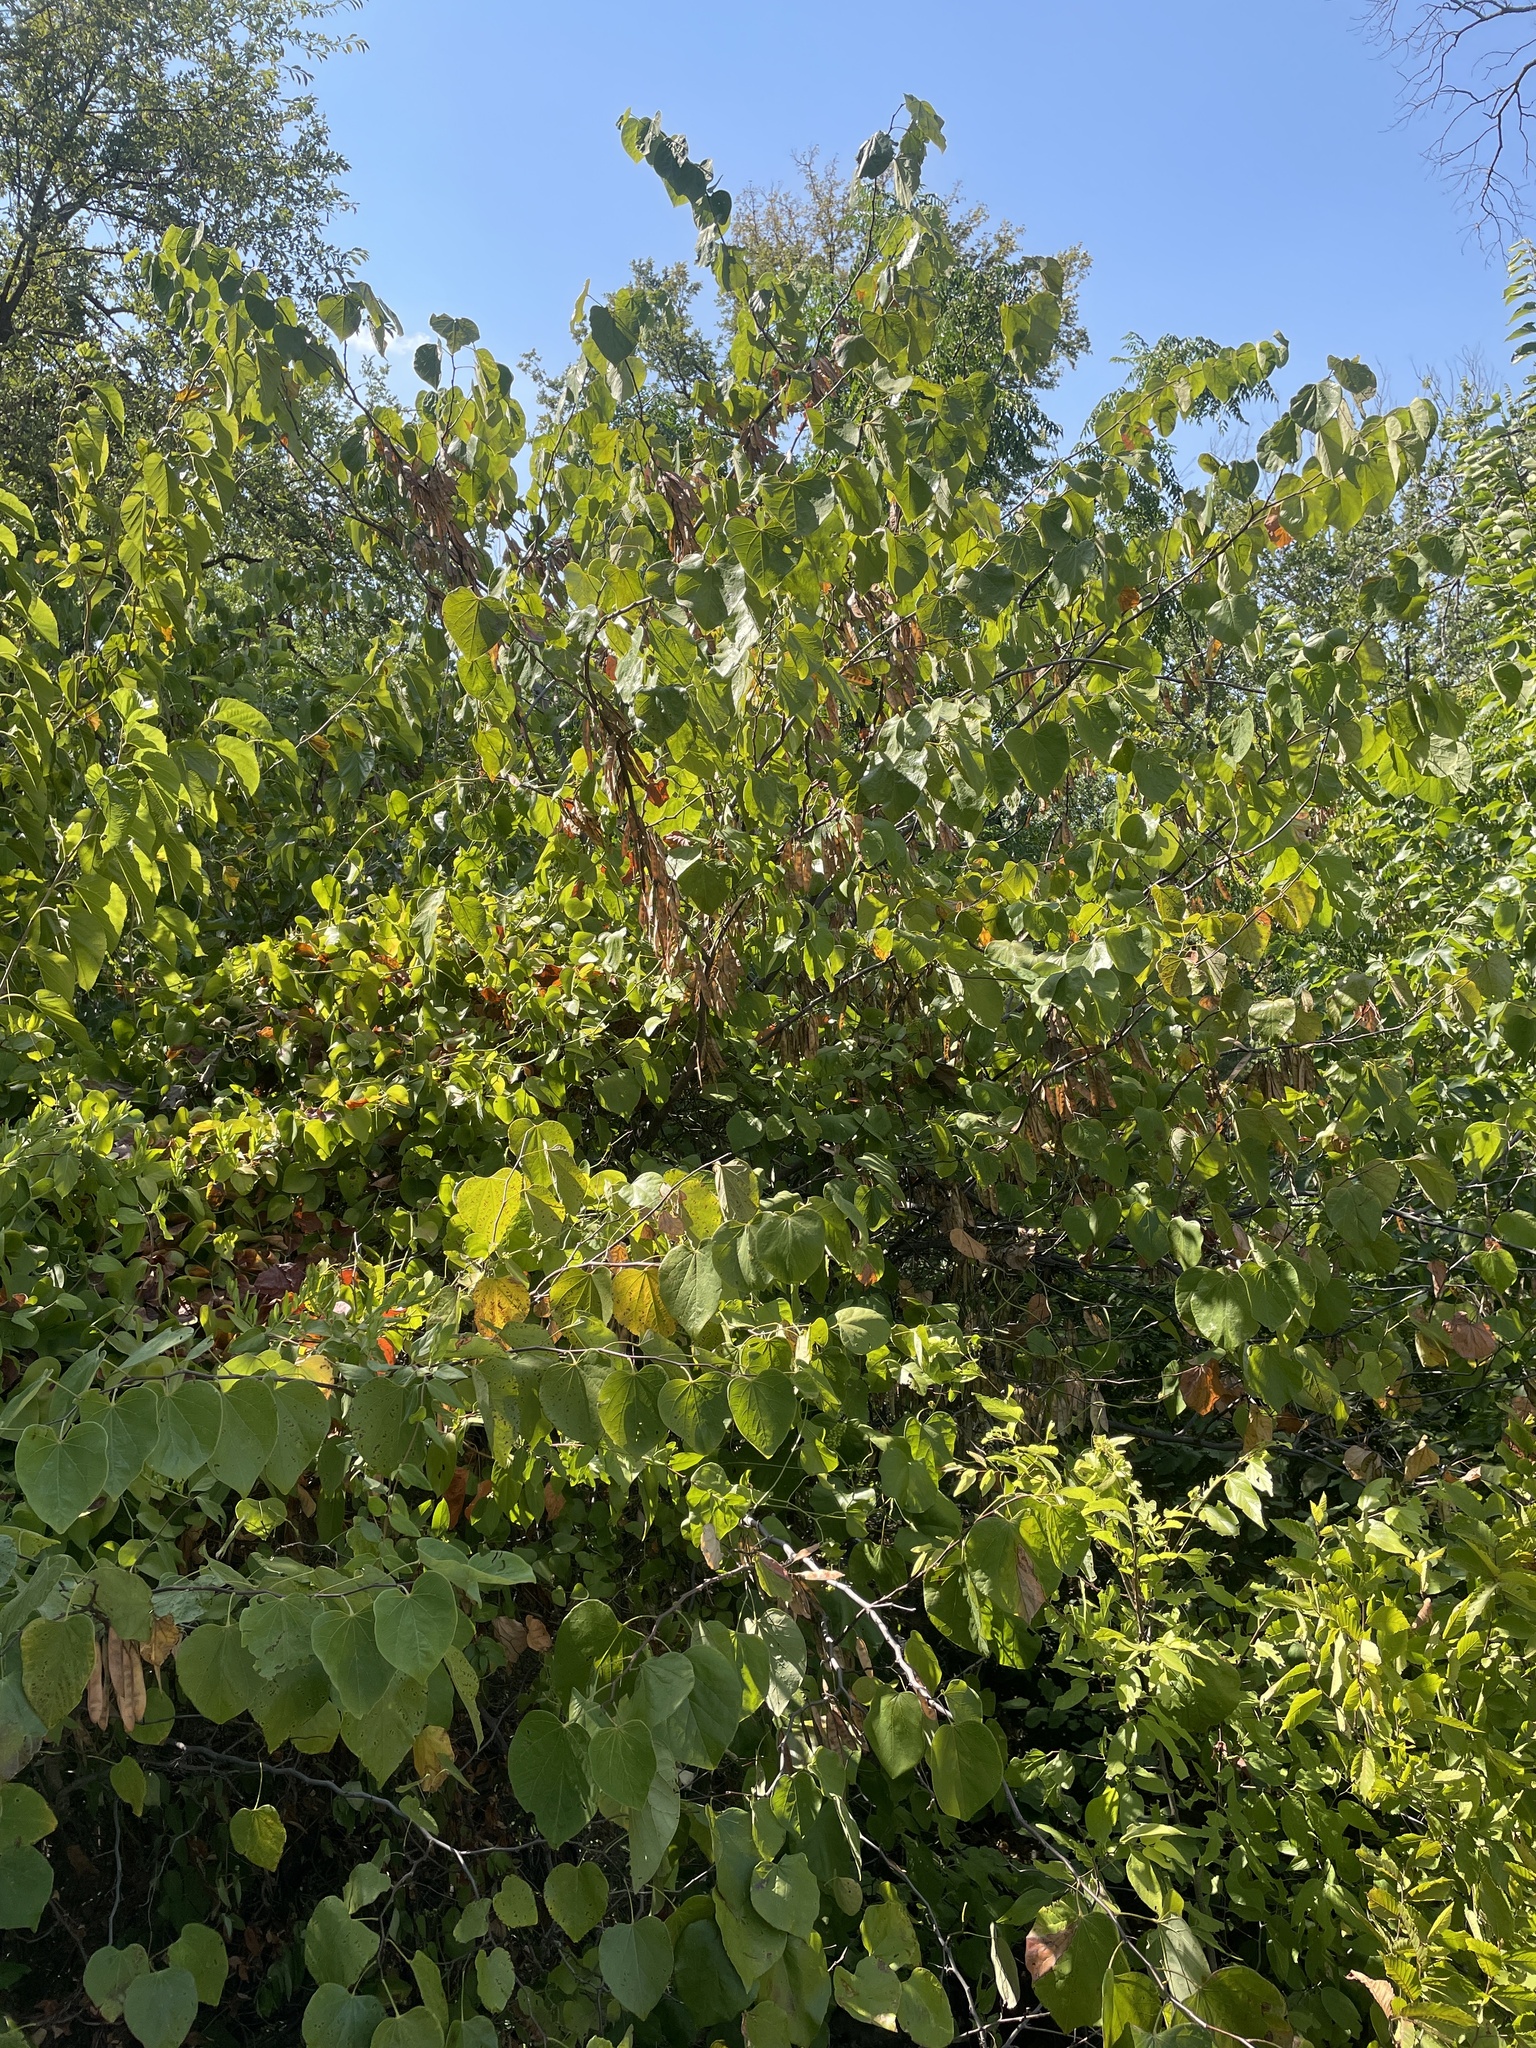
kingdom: Plantae
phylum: Tracheophyta
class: Magnoliopsida
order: Fabales
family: Fabaceae
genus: Cercis
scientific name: Cercis canadensis
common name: Eastern redbud
